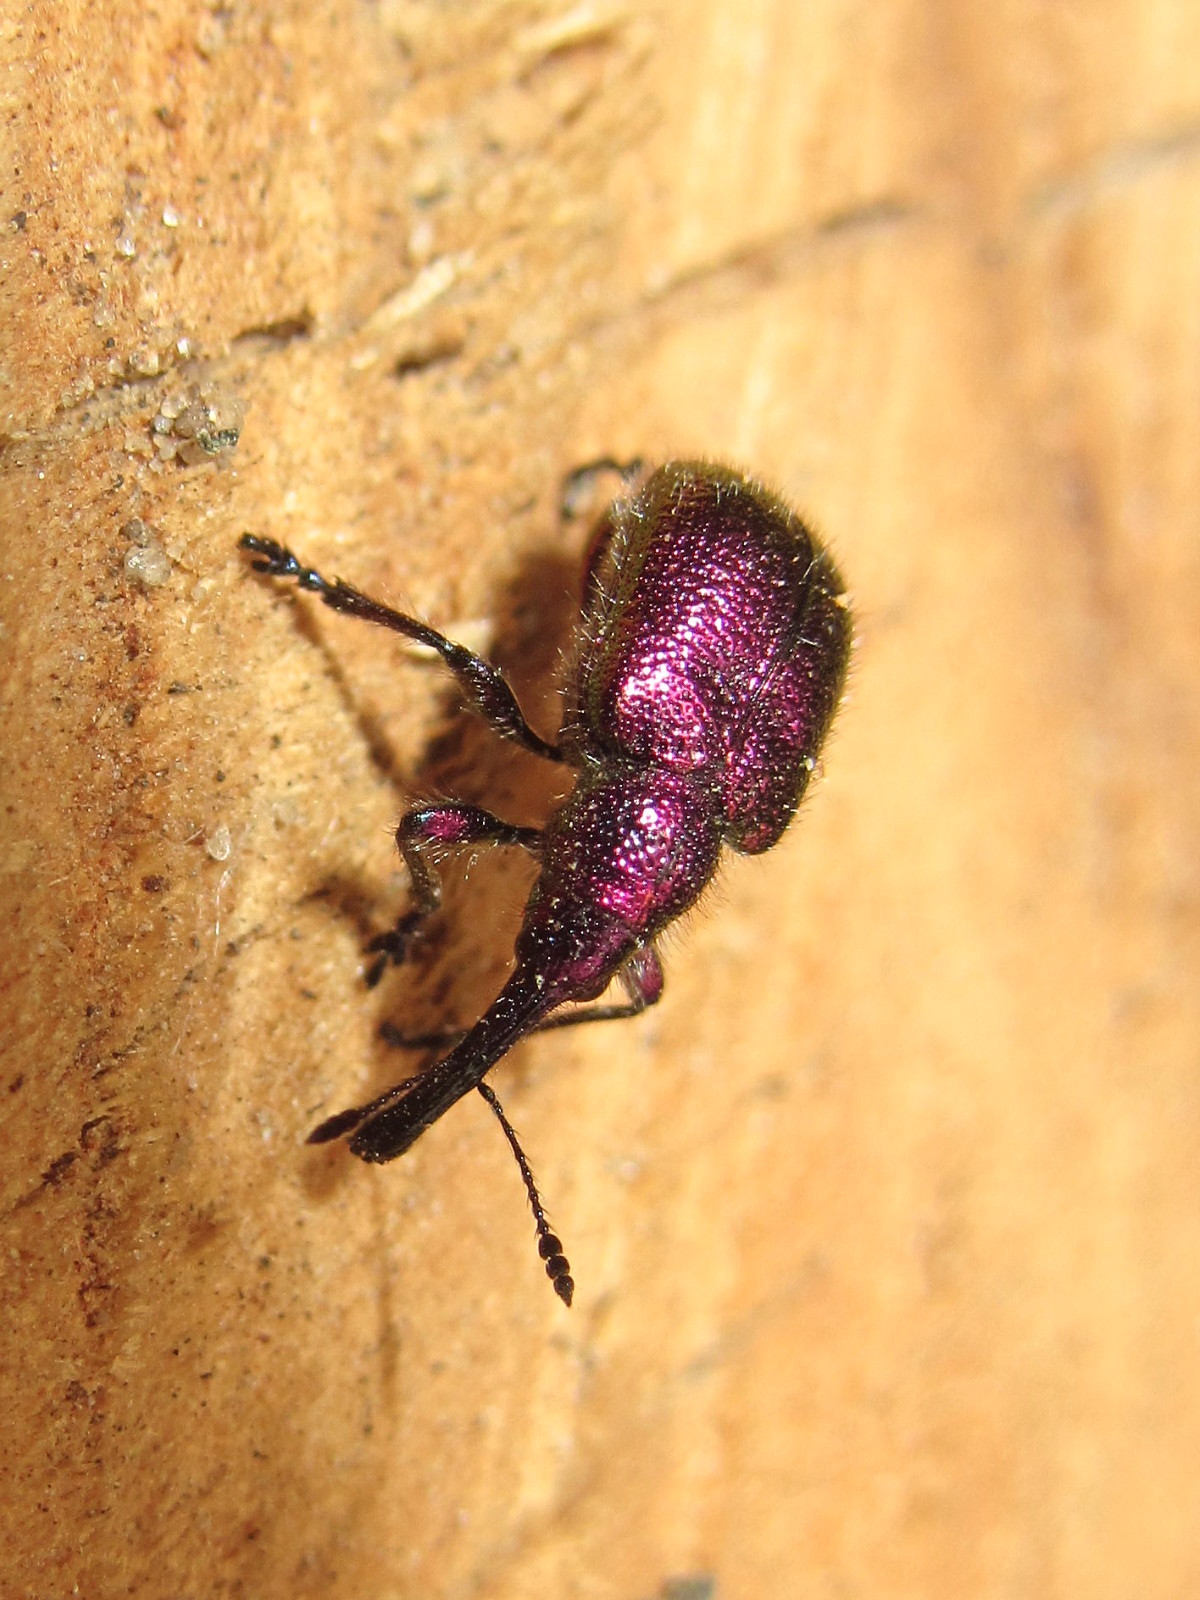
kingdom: Animalia
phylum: Arthropoda
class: Insecta
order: Coleoptera
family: Attelabidae
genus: Rhynchites
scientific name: Rhynchites bacchus
